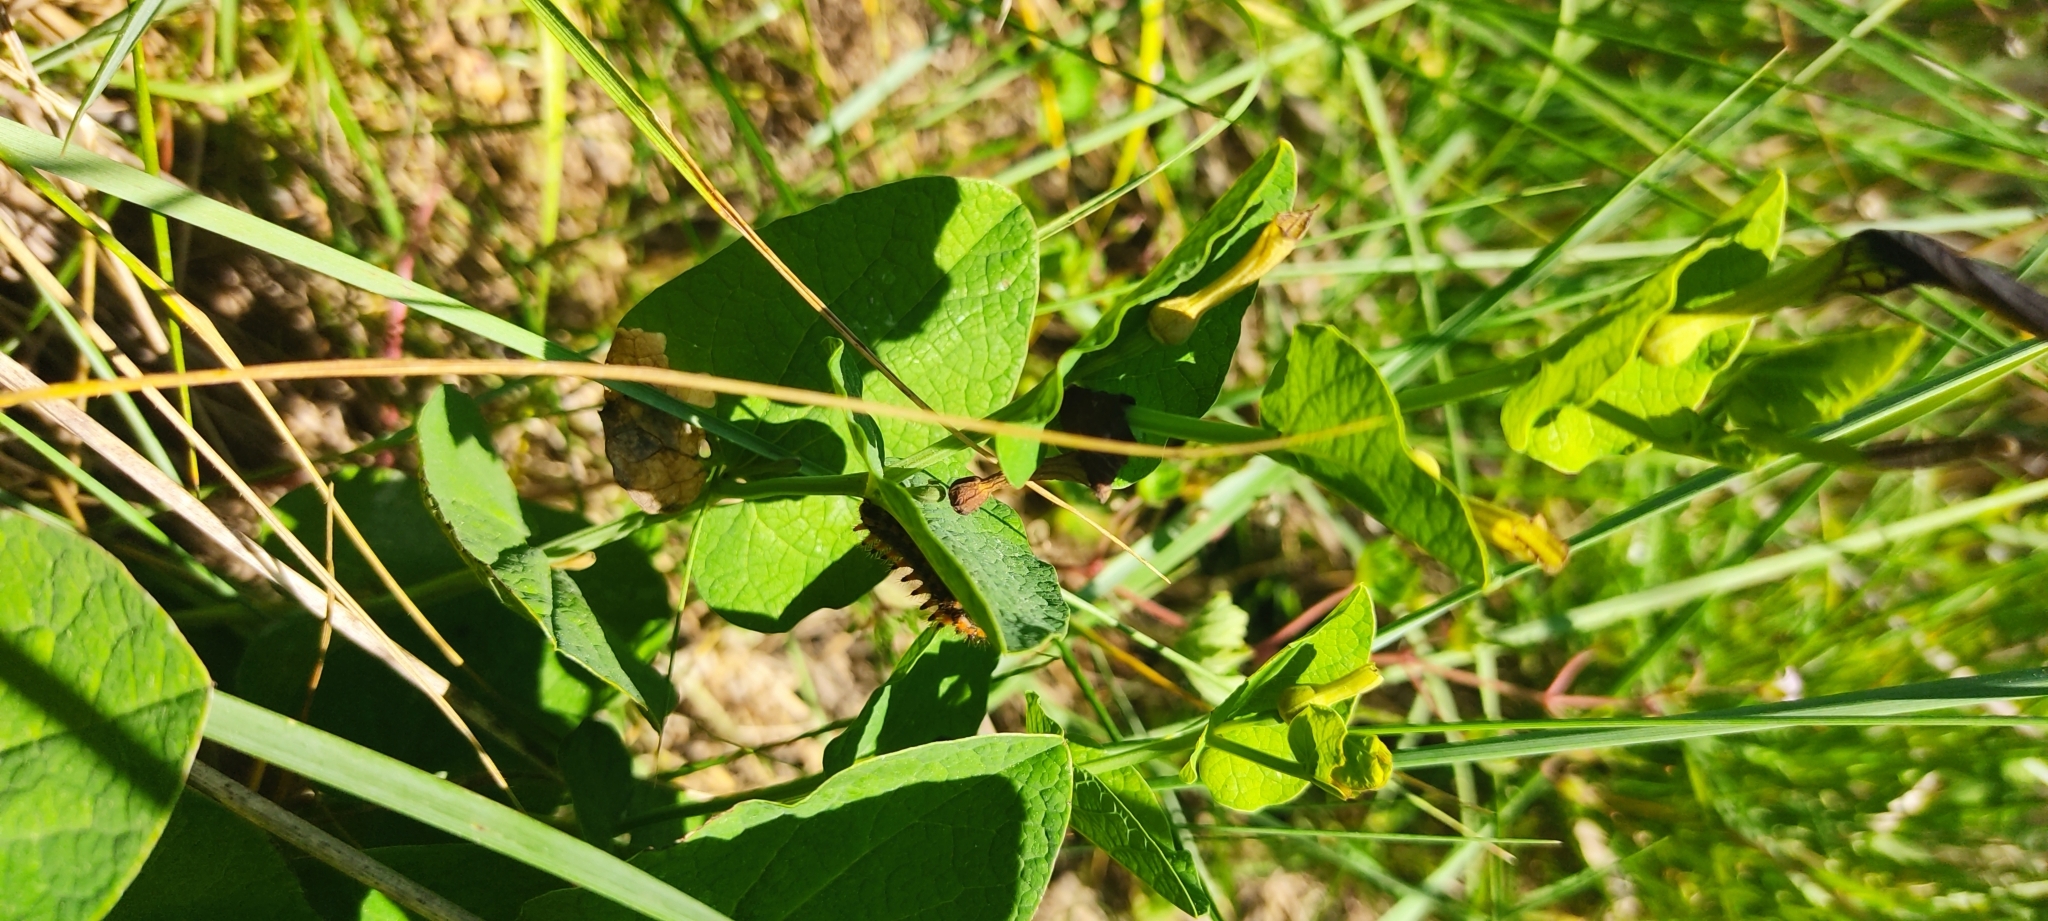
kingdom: Animalia
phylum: Arthropoda
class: Insecta
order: Lepidoptera
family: Papilionidae
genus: Zerynthia
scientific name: Zerynthia polyxena
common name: Southern festoon
